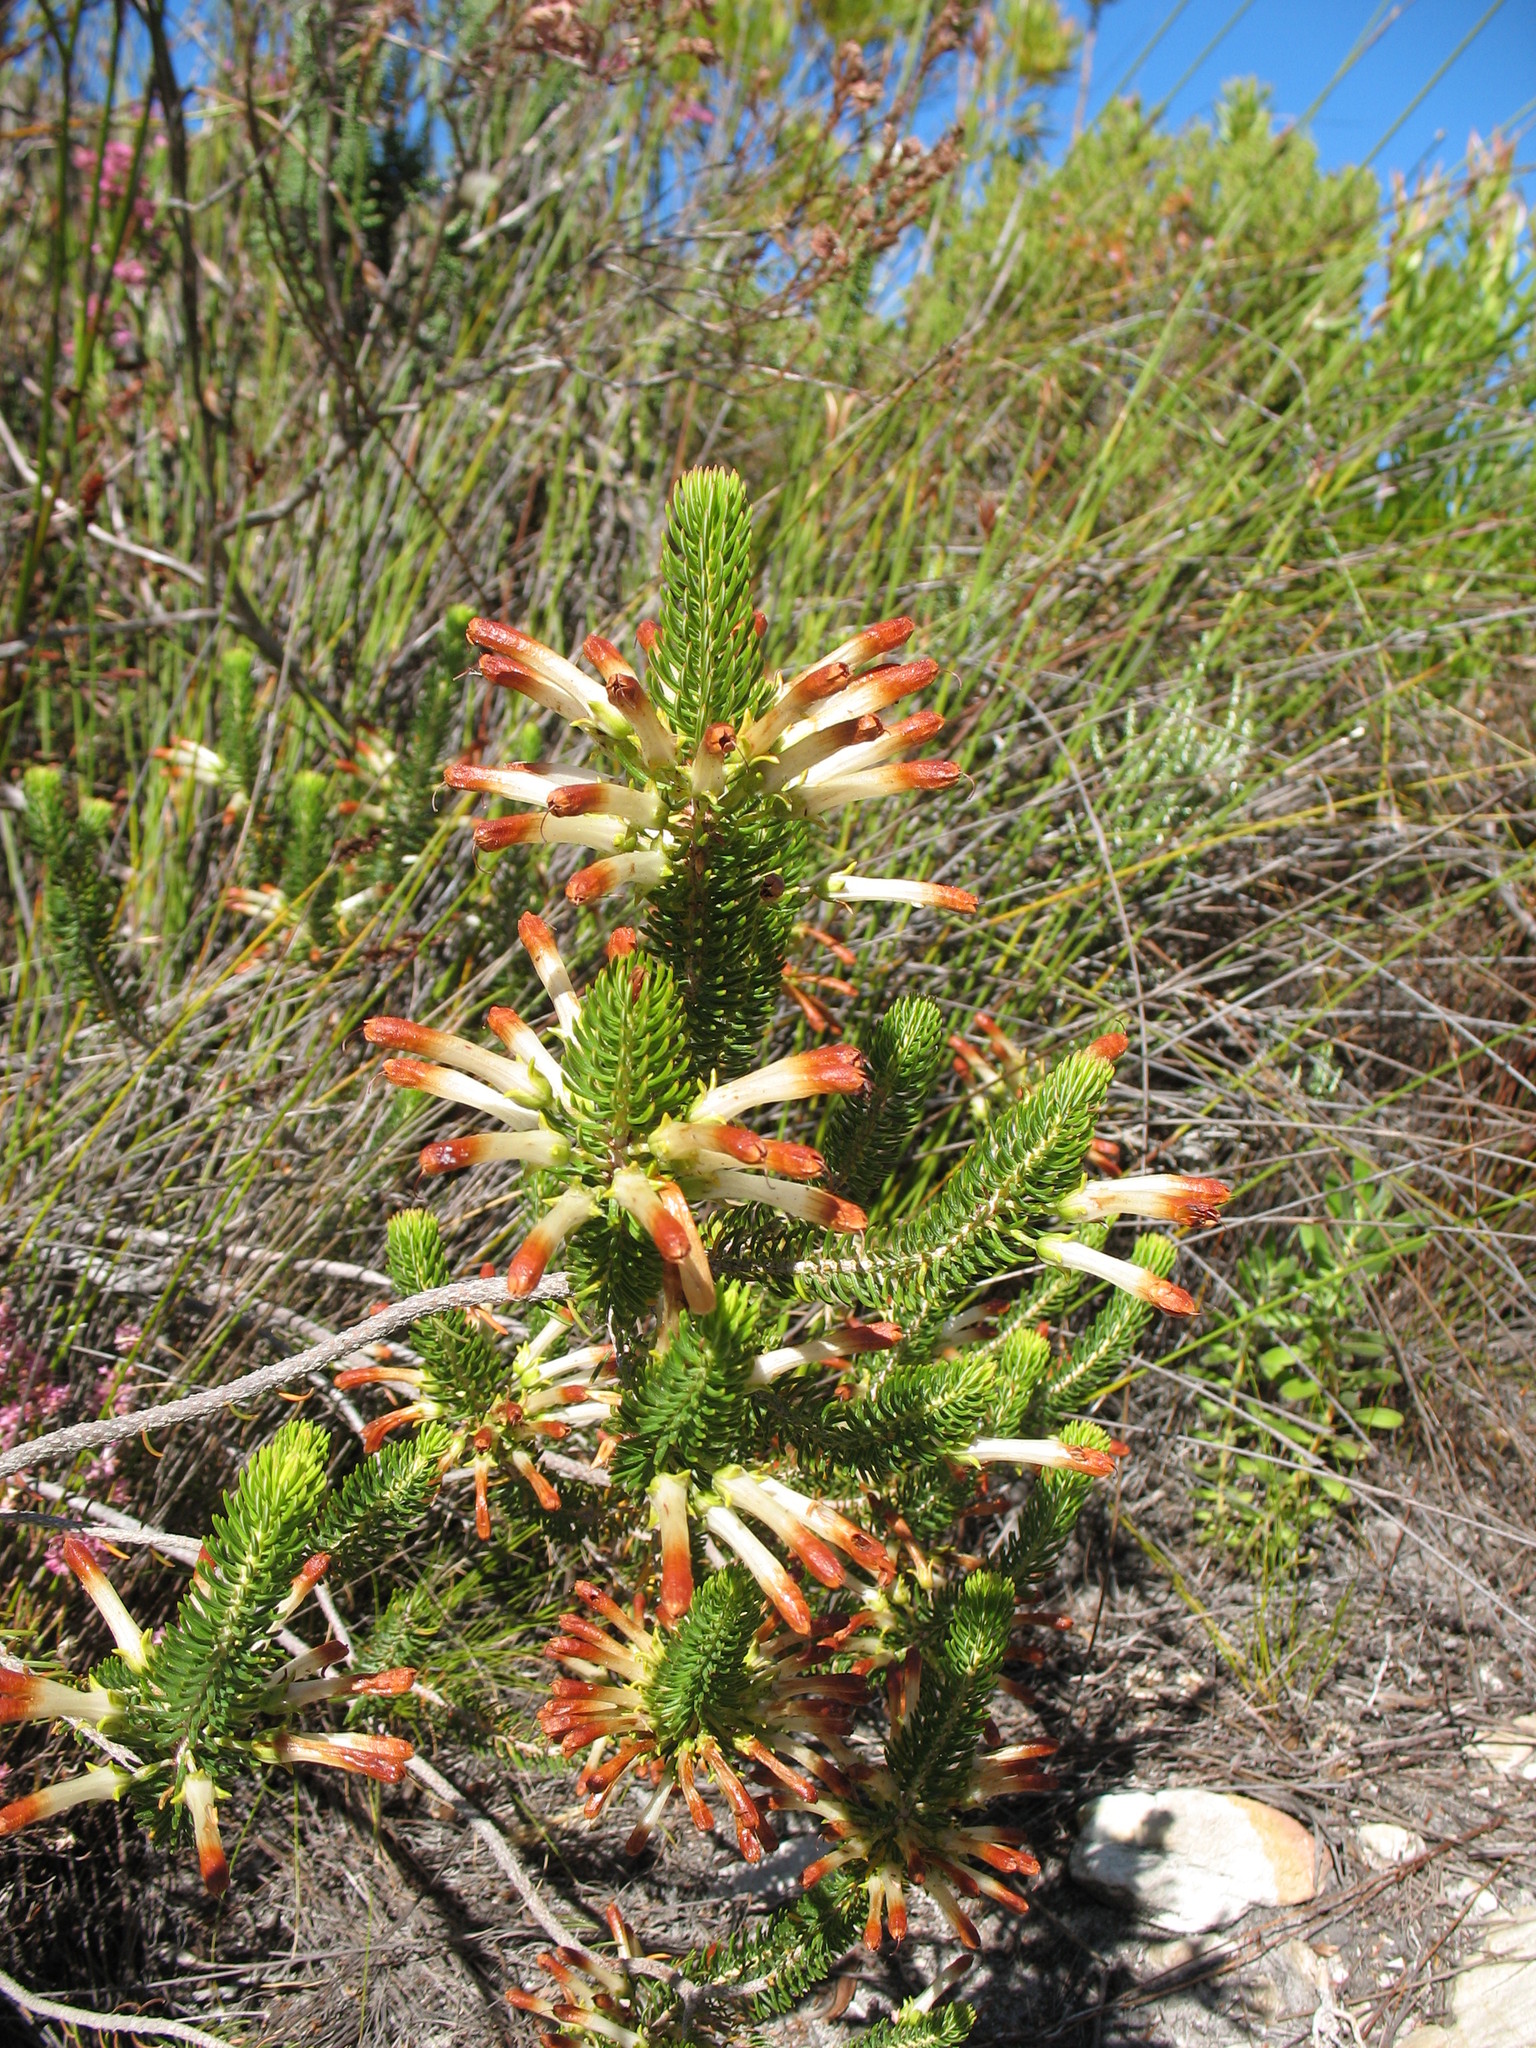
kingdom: Plantae
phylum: Tracheophyta
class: Magnoliopsida
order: Ericales
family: Ericaceae
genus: Erica
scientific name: Erica thomae
